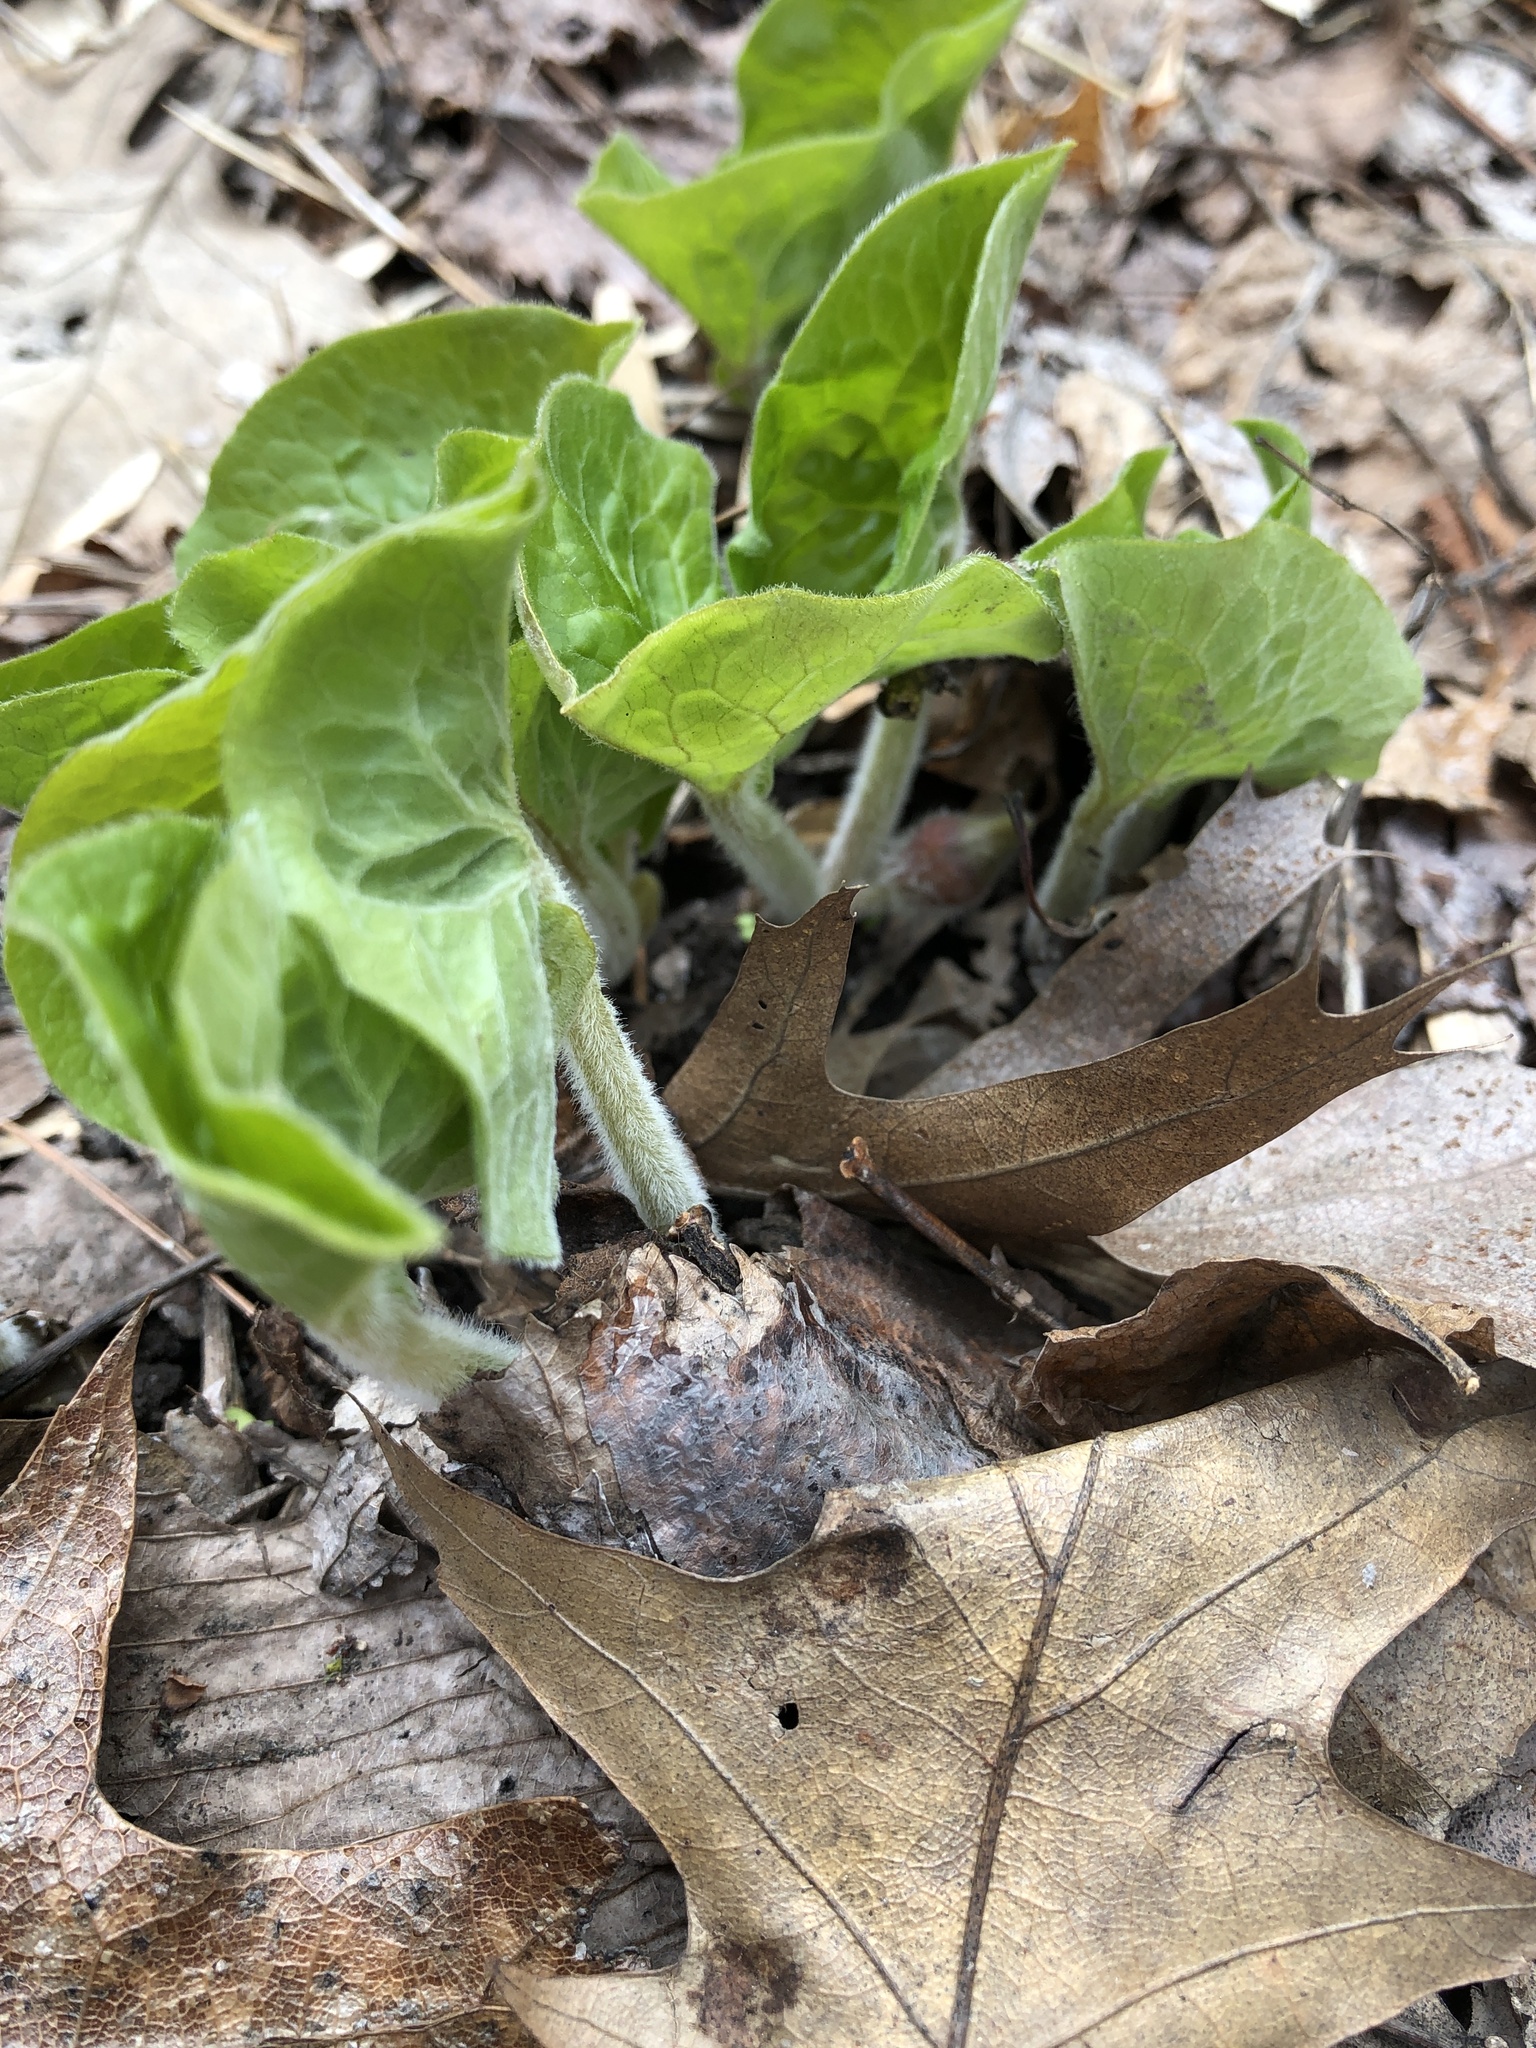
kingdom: Plantae
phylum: Tracheophyta
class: Magnoliopsida
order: Piperales
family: Aristolochiaceae
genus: Asarum
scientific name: Asarum canadense
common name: Wild ginger
